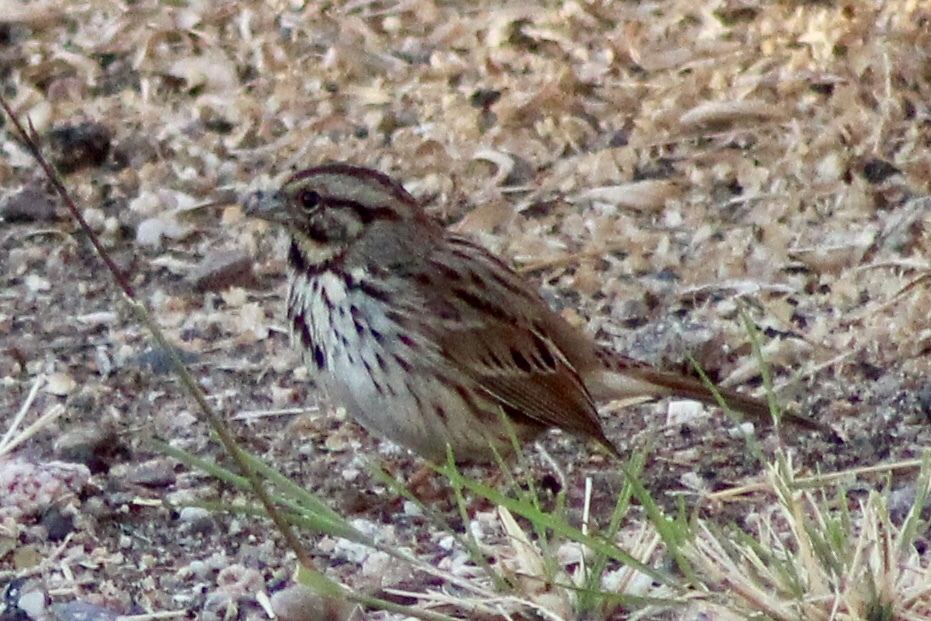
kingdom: Animalia
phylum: Chordata
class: Aves
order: Passeriformes
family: Passerellidae
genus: Melospiza
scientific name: Melospiza melodia
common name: Song sparrow
